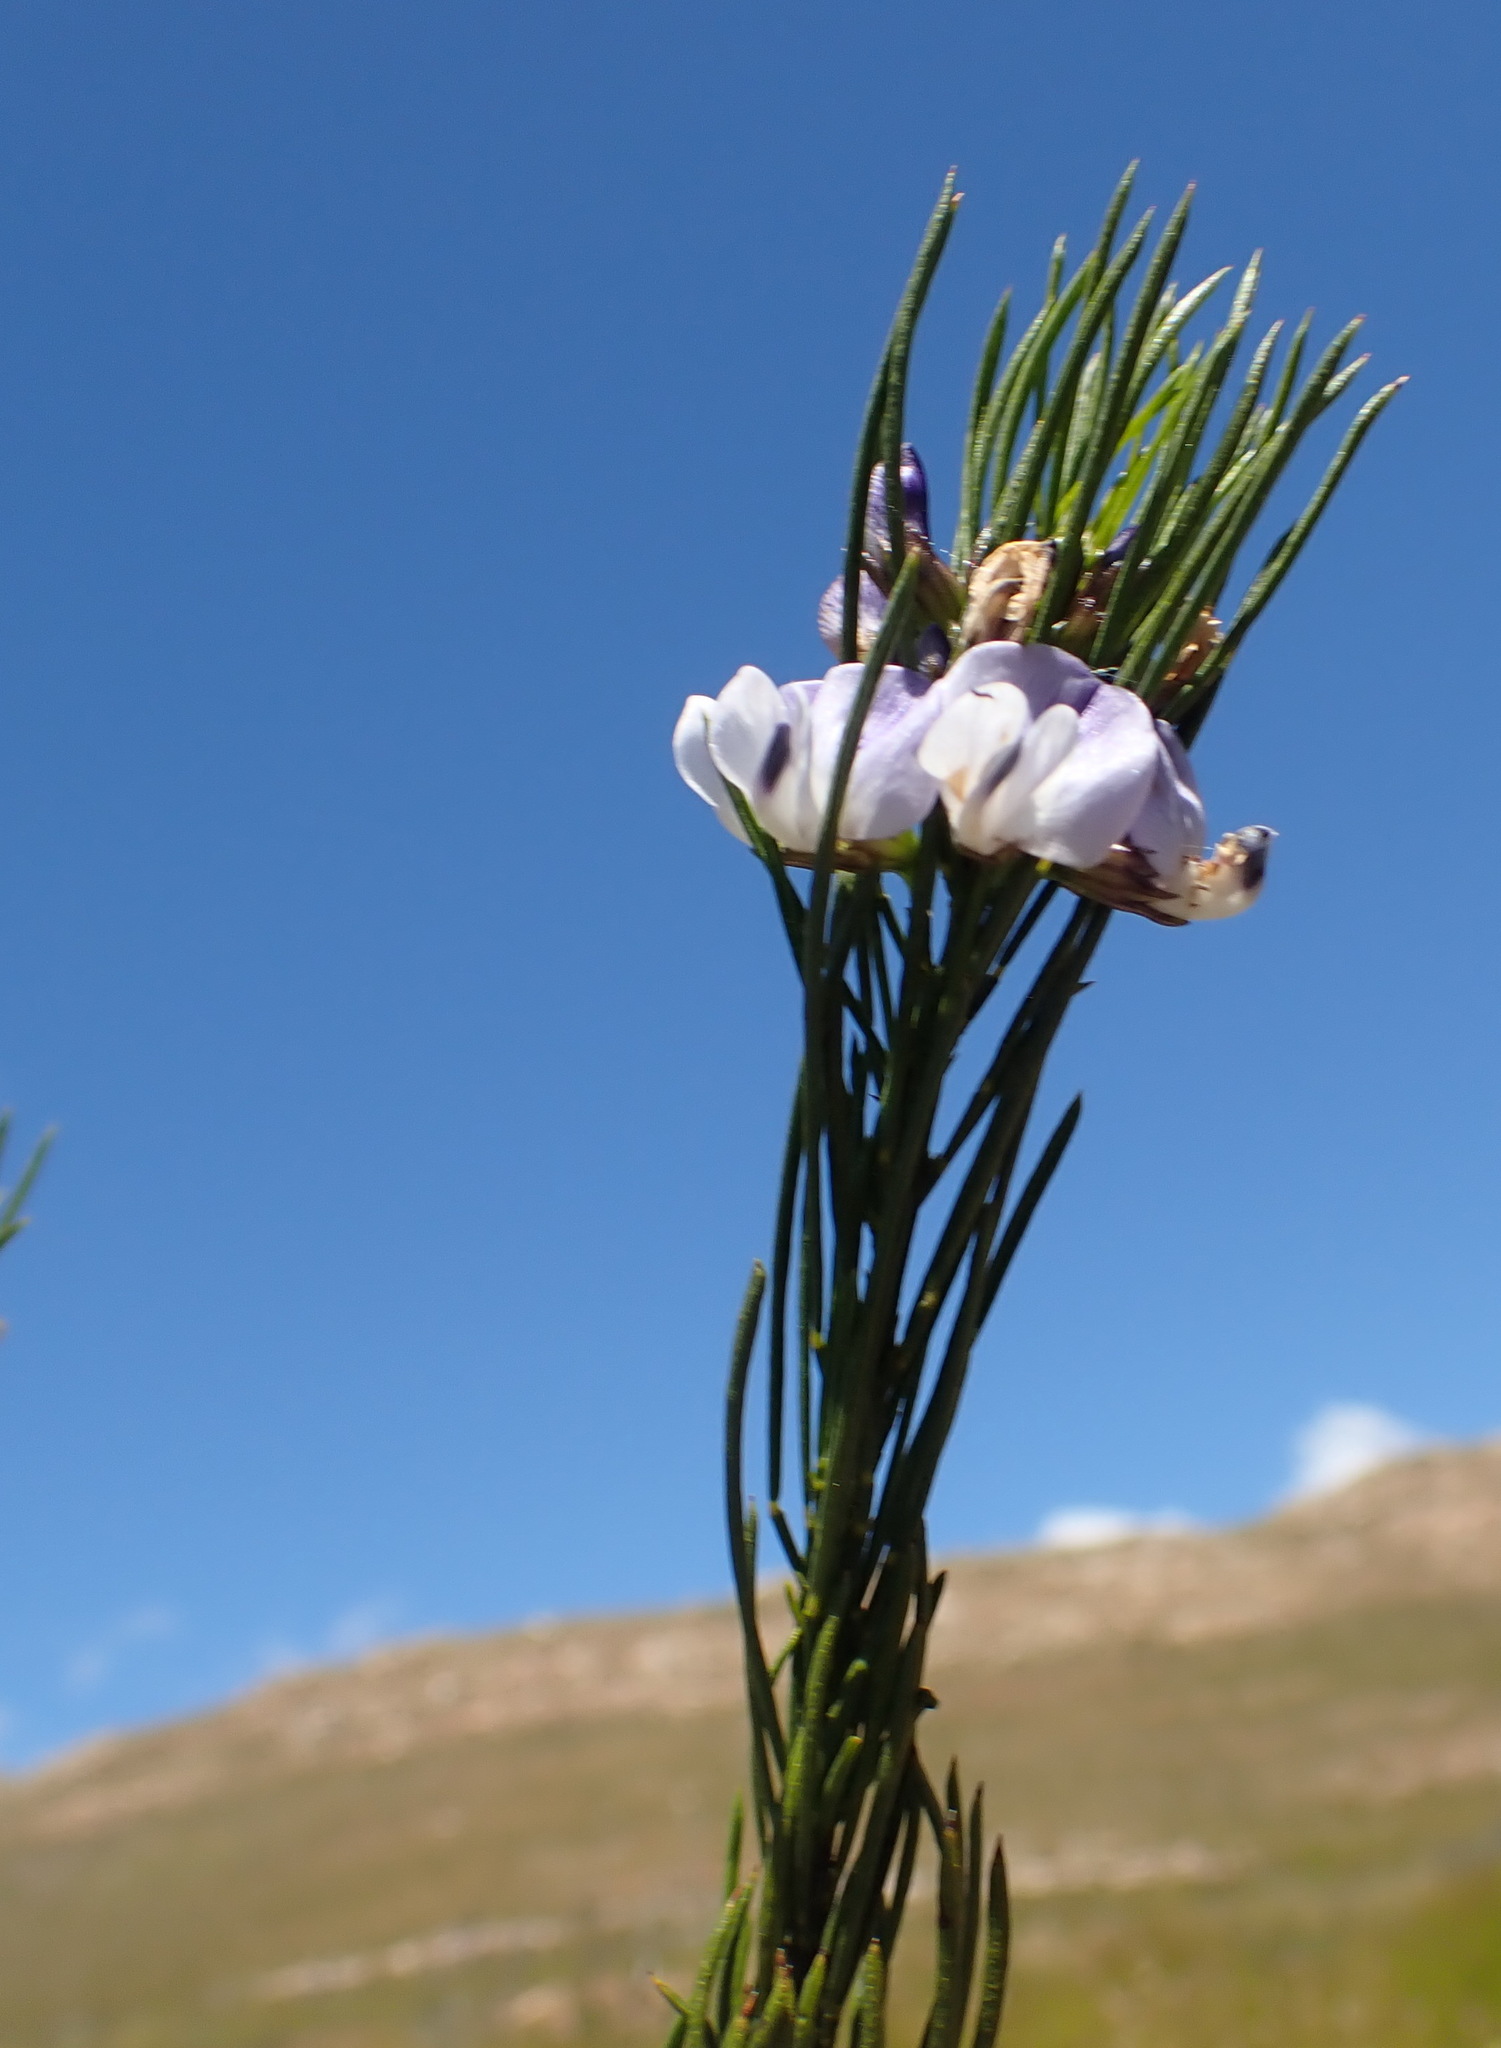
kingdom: Plantae
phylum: Tracheophyta
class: Magnoliopsida
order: Fabales
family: Fabaceae
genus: Psoralea
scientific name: Psoralea sordida
